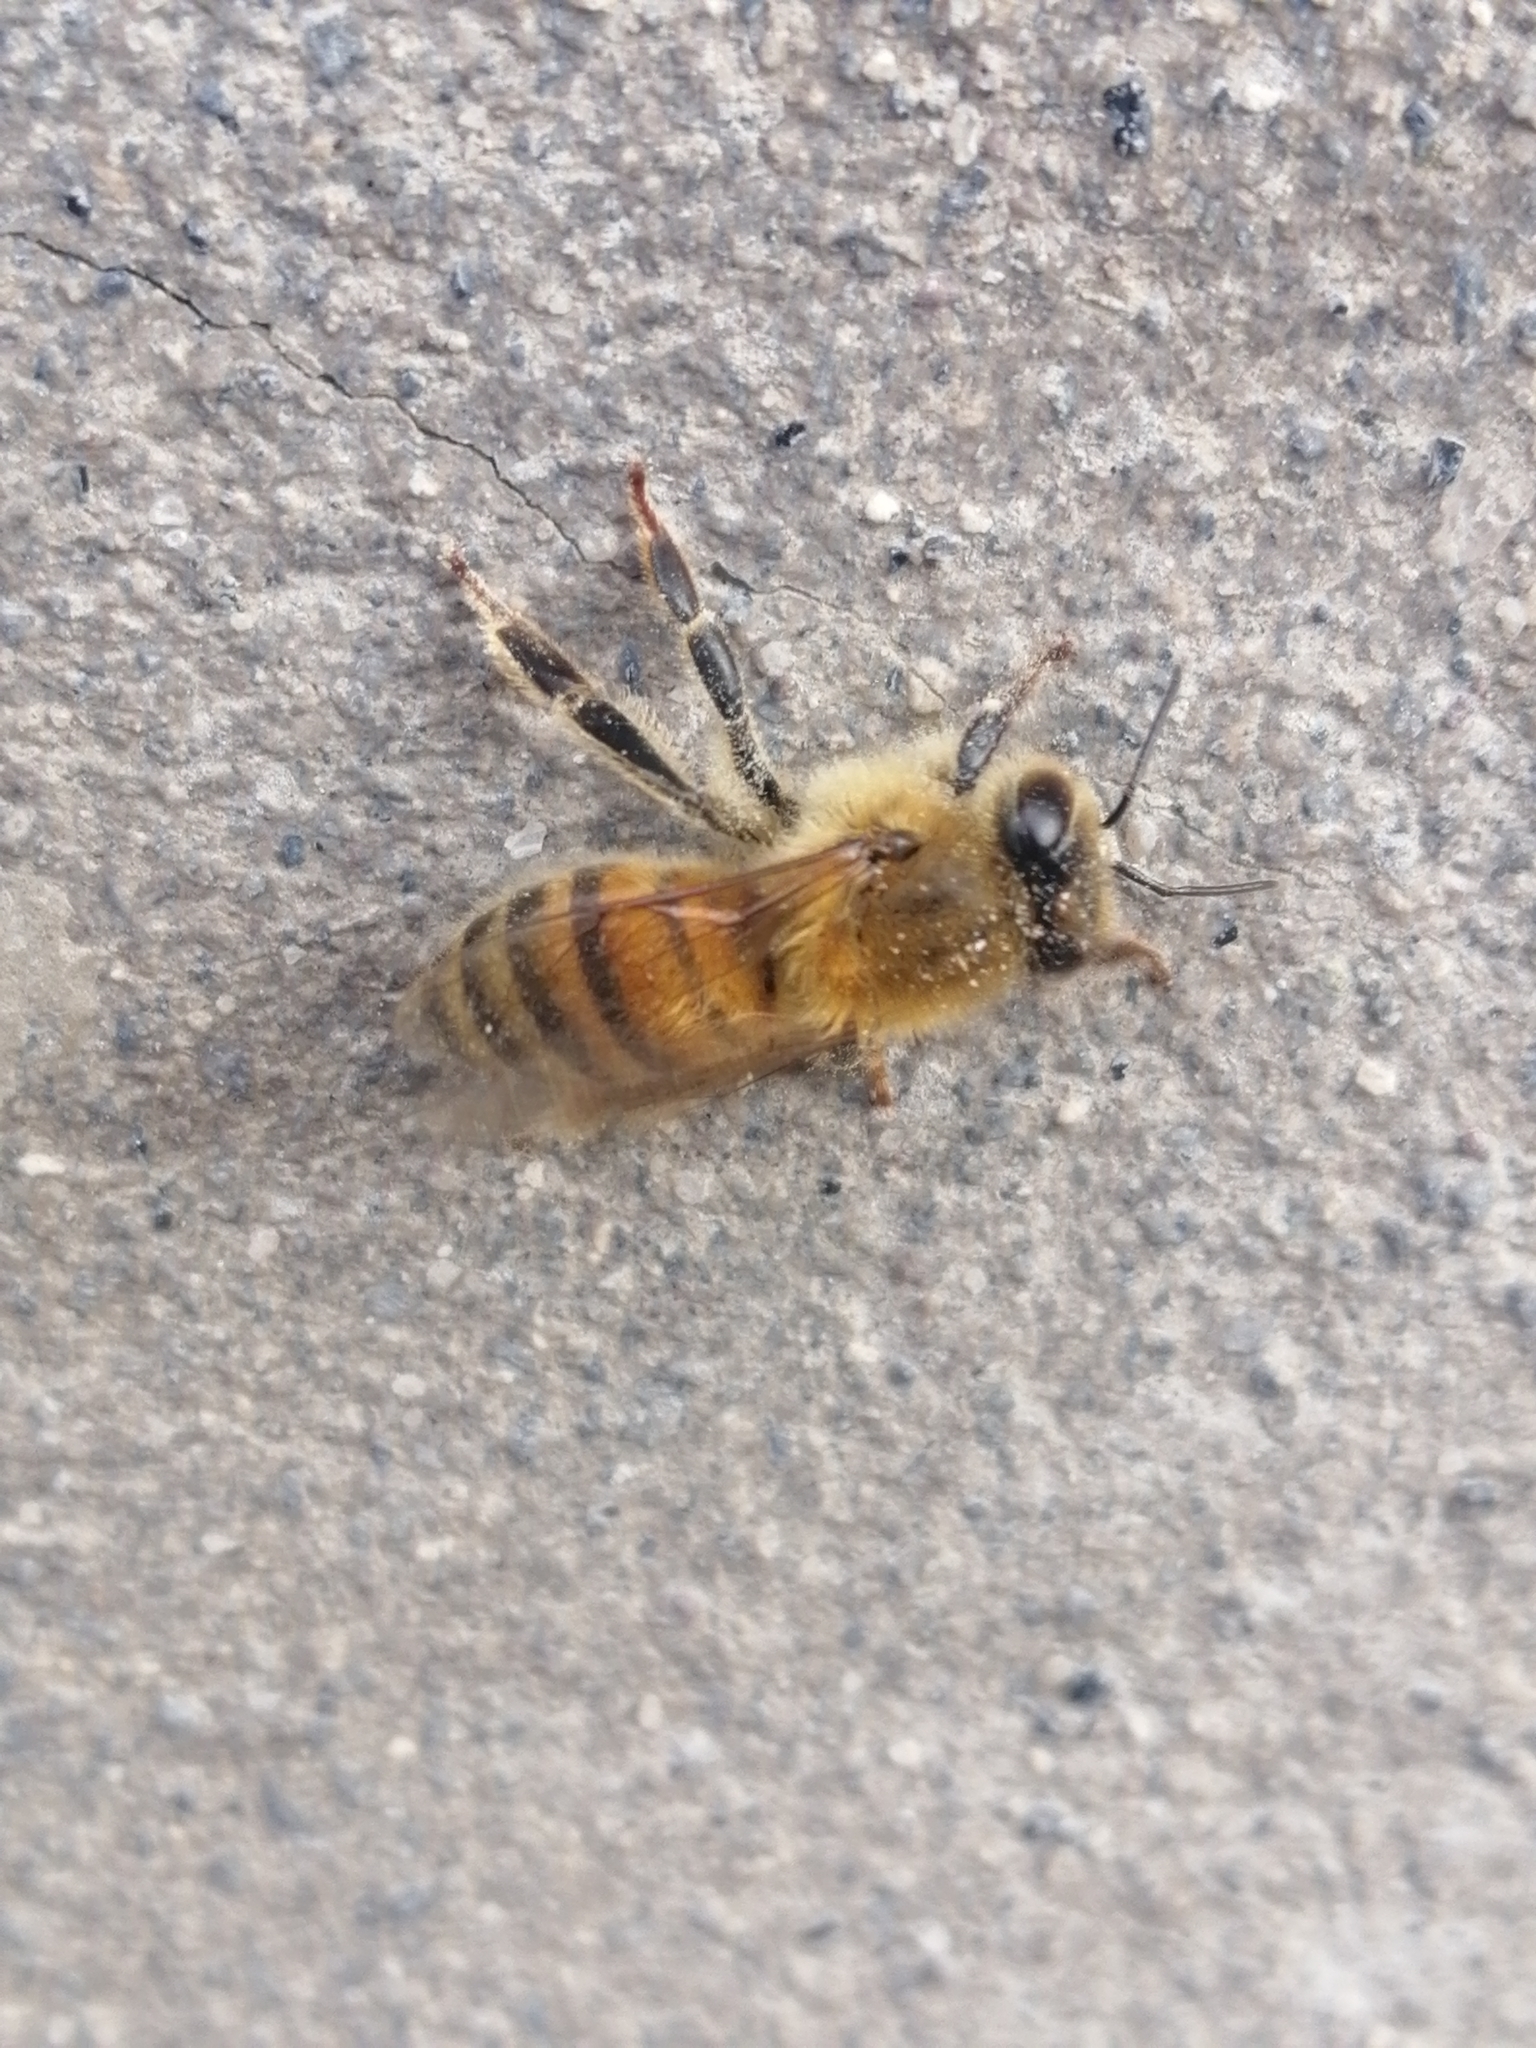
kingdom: Animalia
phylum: Arthropoda
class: Insecta
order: Hymenoptera
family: Apidae
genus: Apis
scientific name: Apis mellifera
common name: Honey bee
